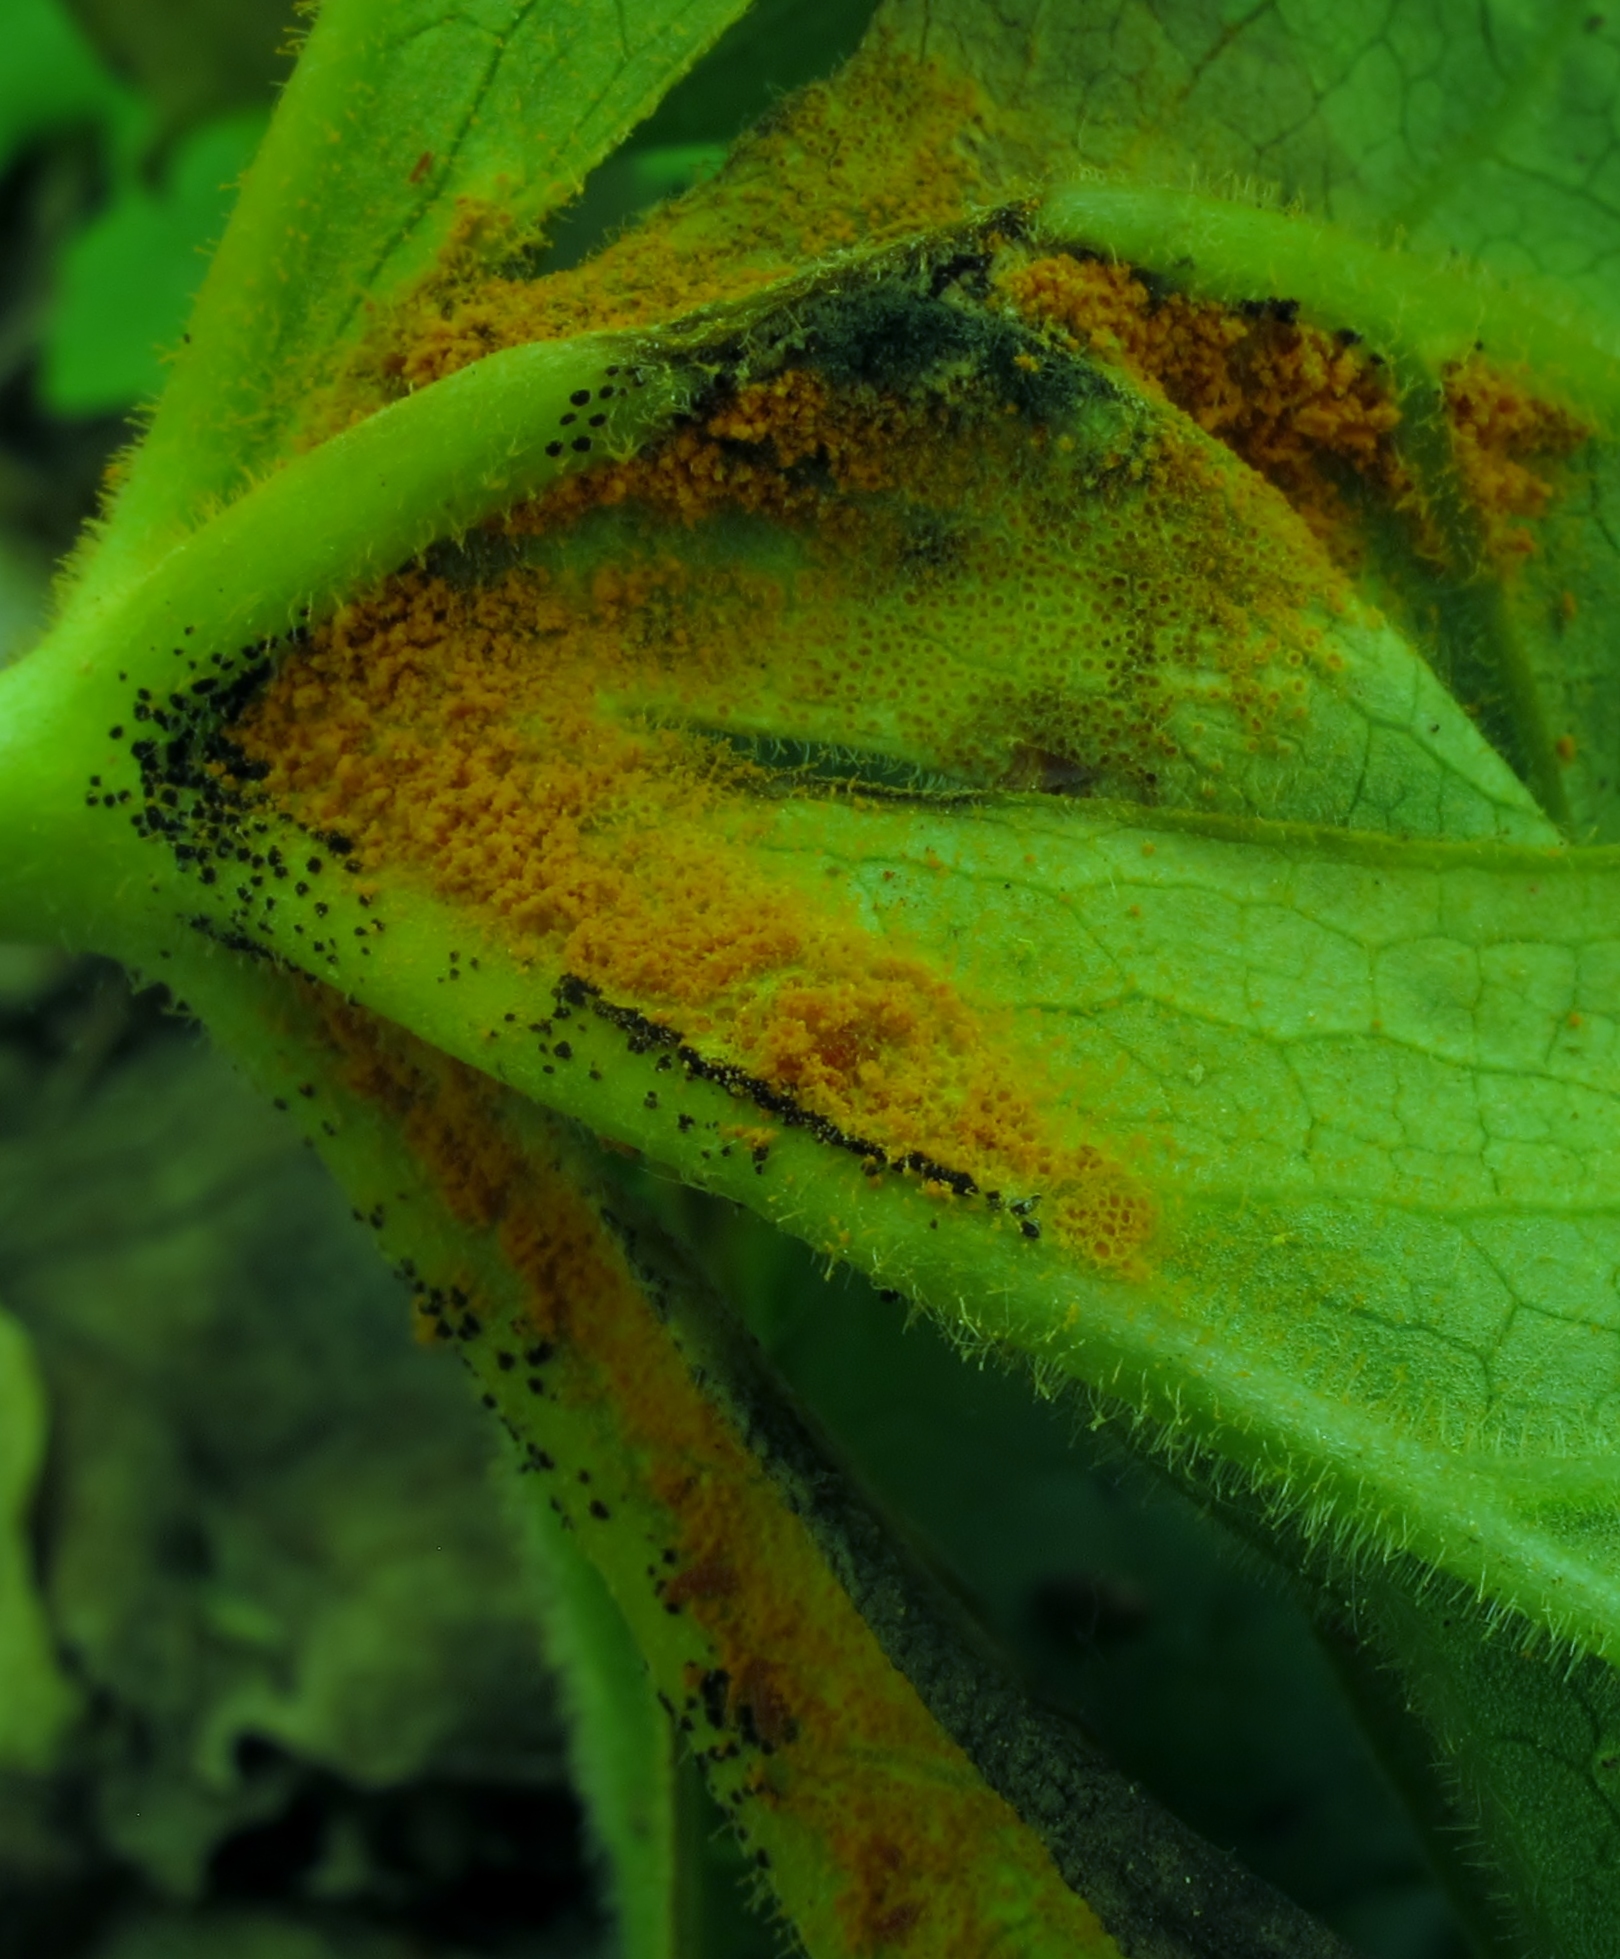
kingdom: Fungi
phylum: Basidiomycota
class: Pucciniomycetes
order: Pucciniales
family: Pucciniaceae
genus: Puccinia
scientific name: Puccinia podophylli
